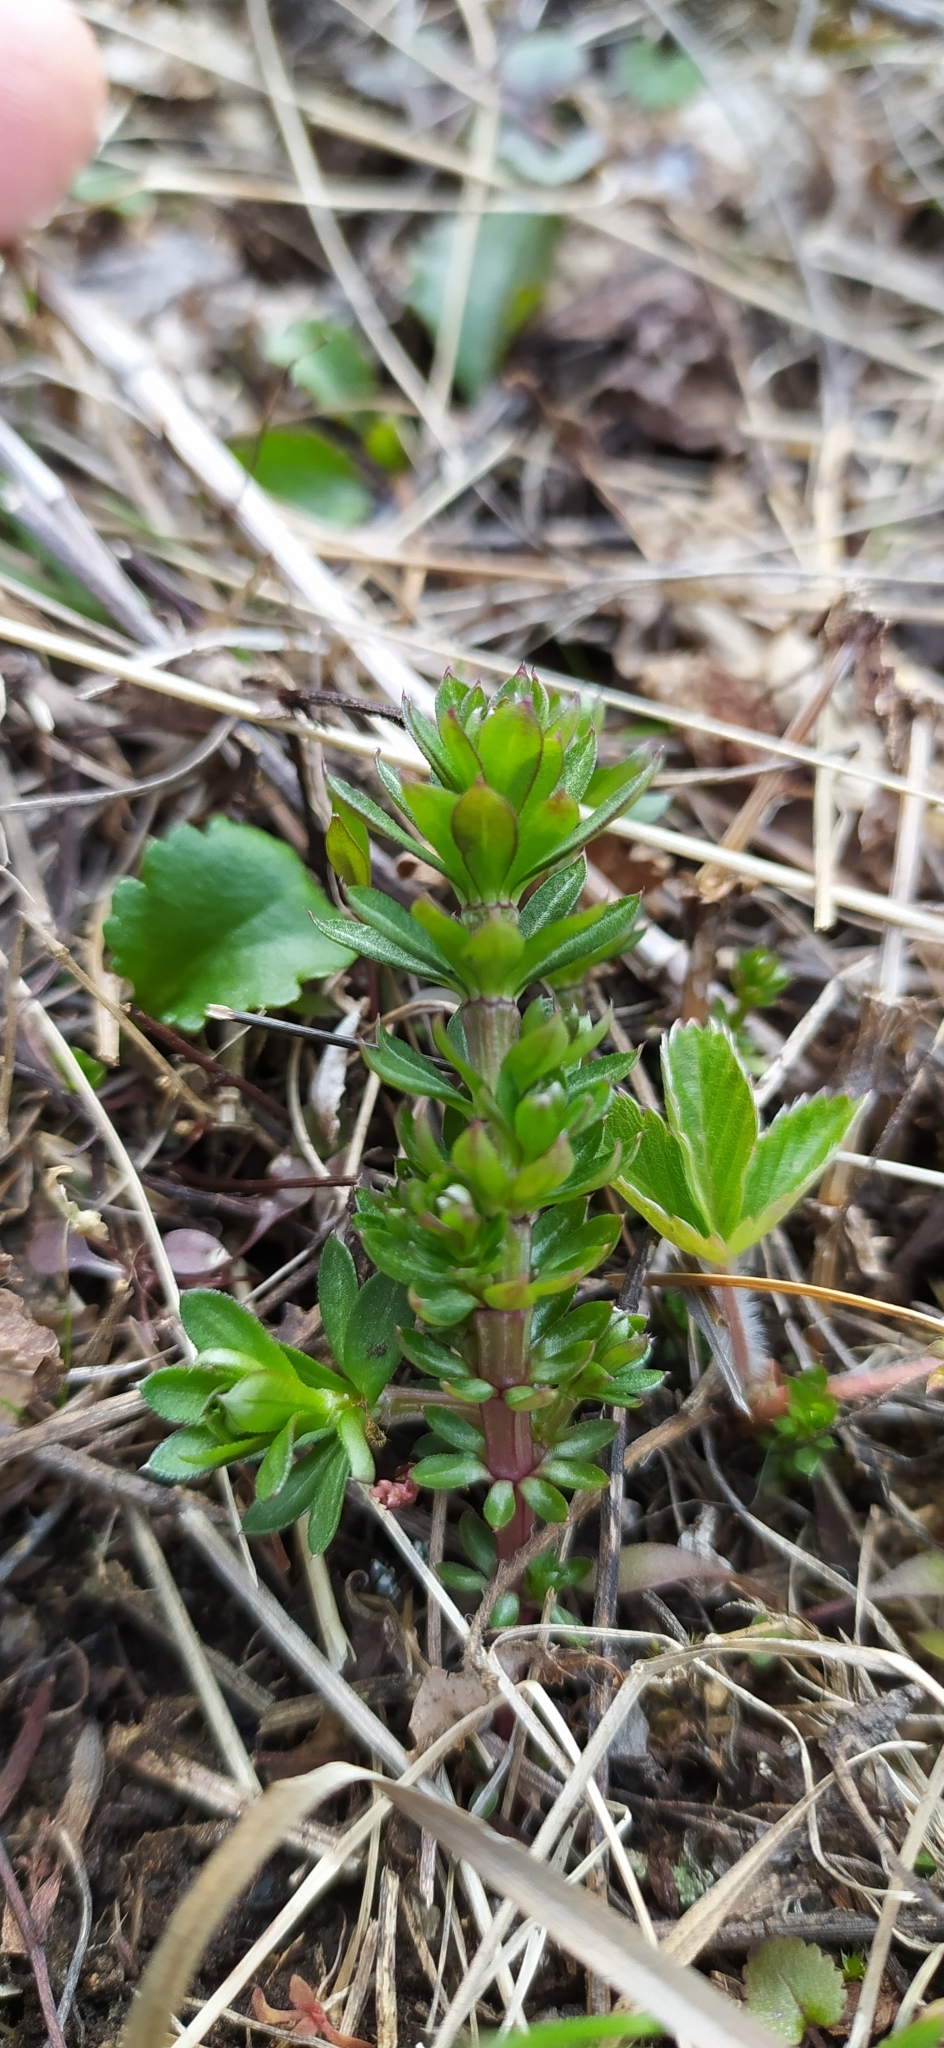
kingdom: Plantae
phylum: Tracheophyta
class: Magnoliopsida
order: Gentianales
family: Rubiaceae
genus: Galium
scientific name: Galium mollugo
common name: Hedge bedstraw
